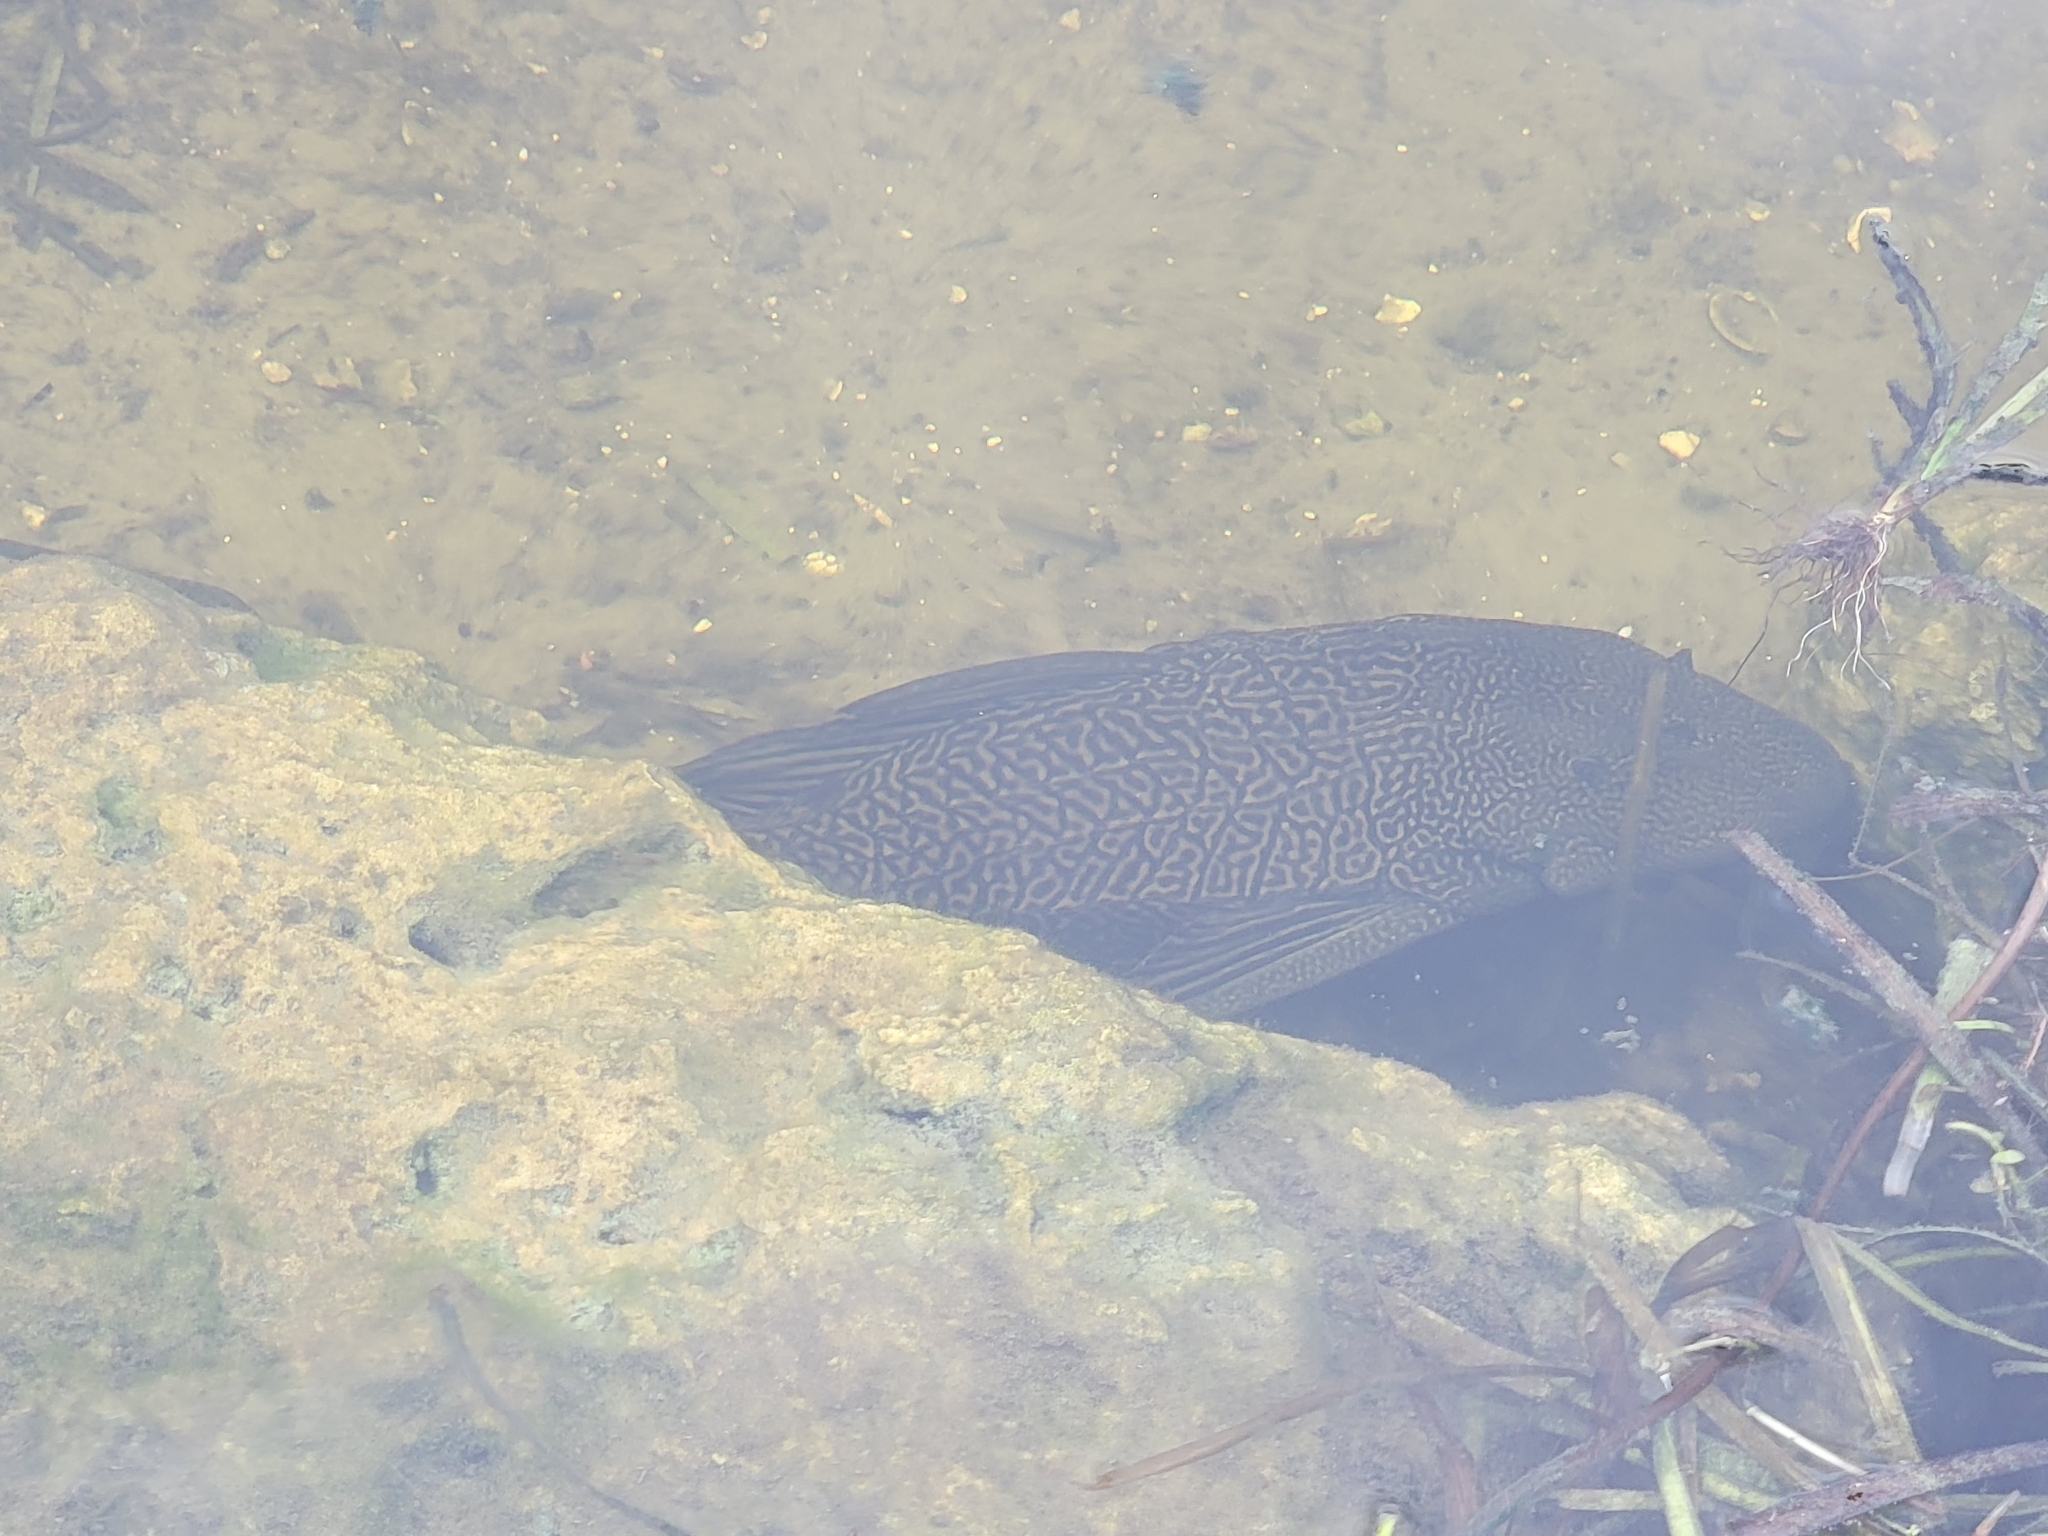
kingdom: Animalia
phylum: Chordata
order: Siluriformes
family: Loricariidae
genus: Pterygoplichthys
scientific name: Pterygoplichthys
